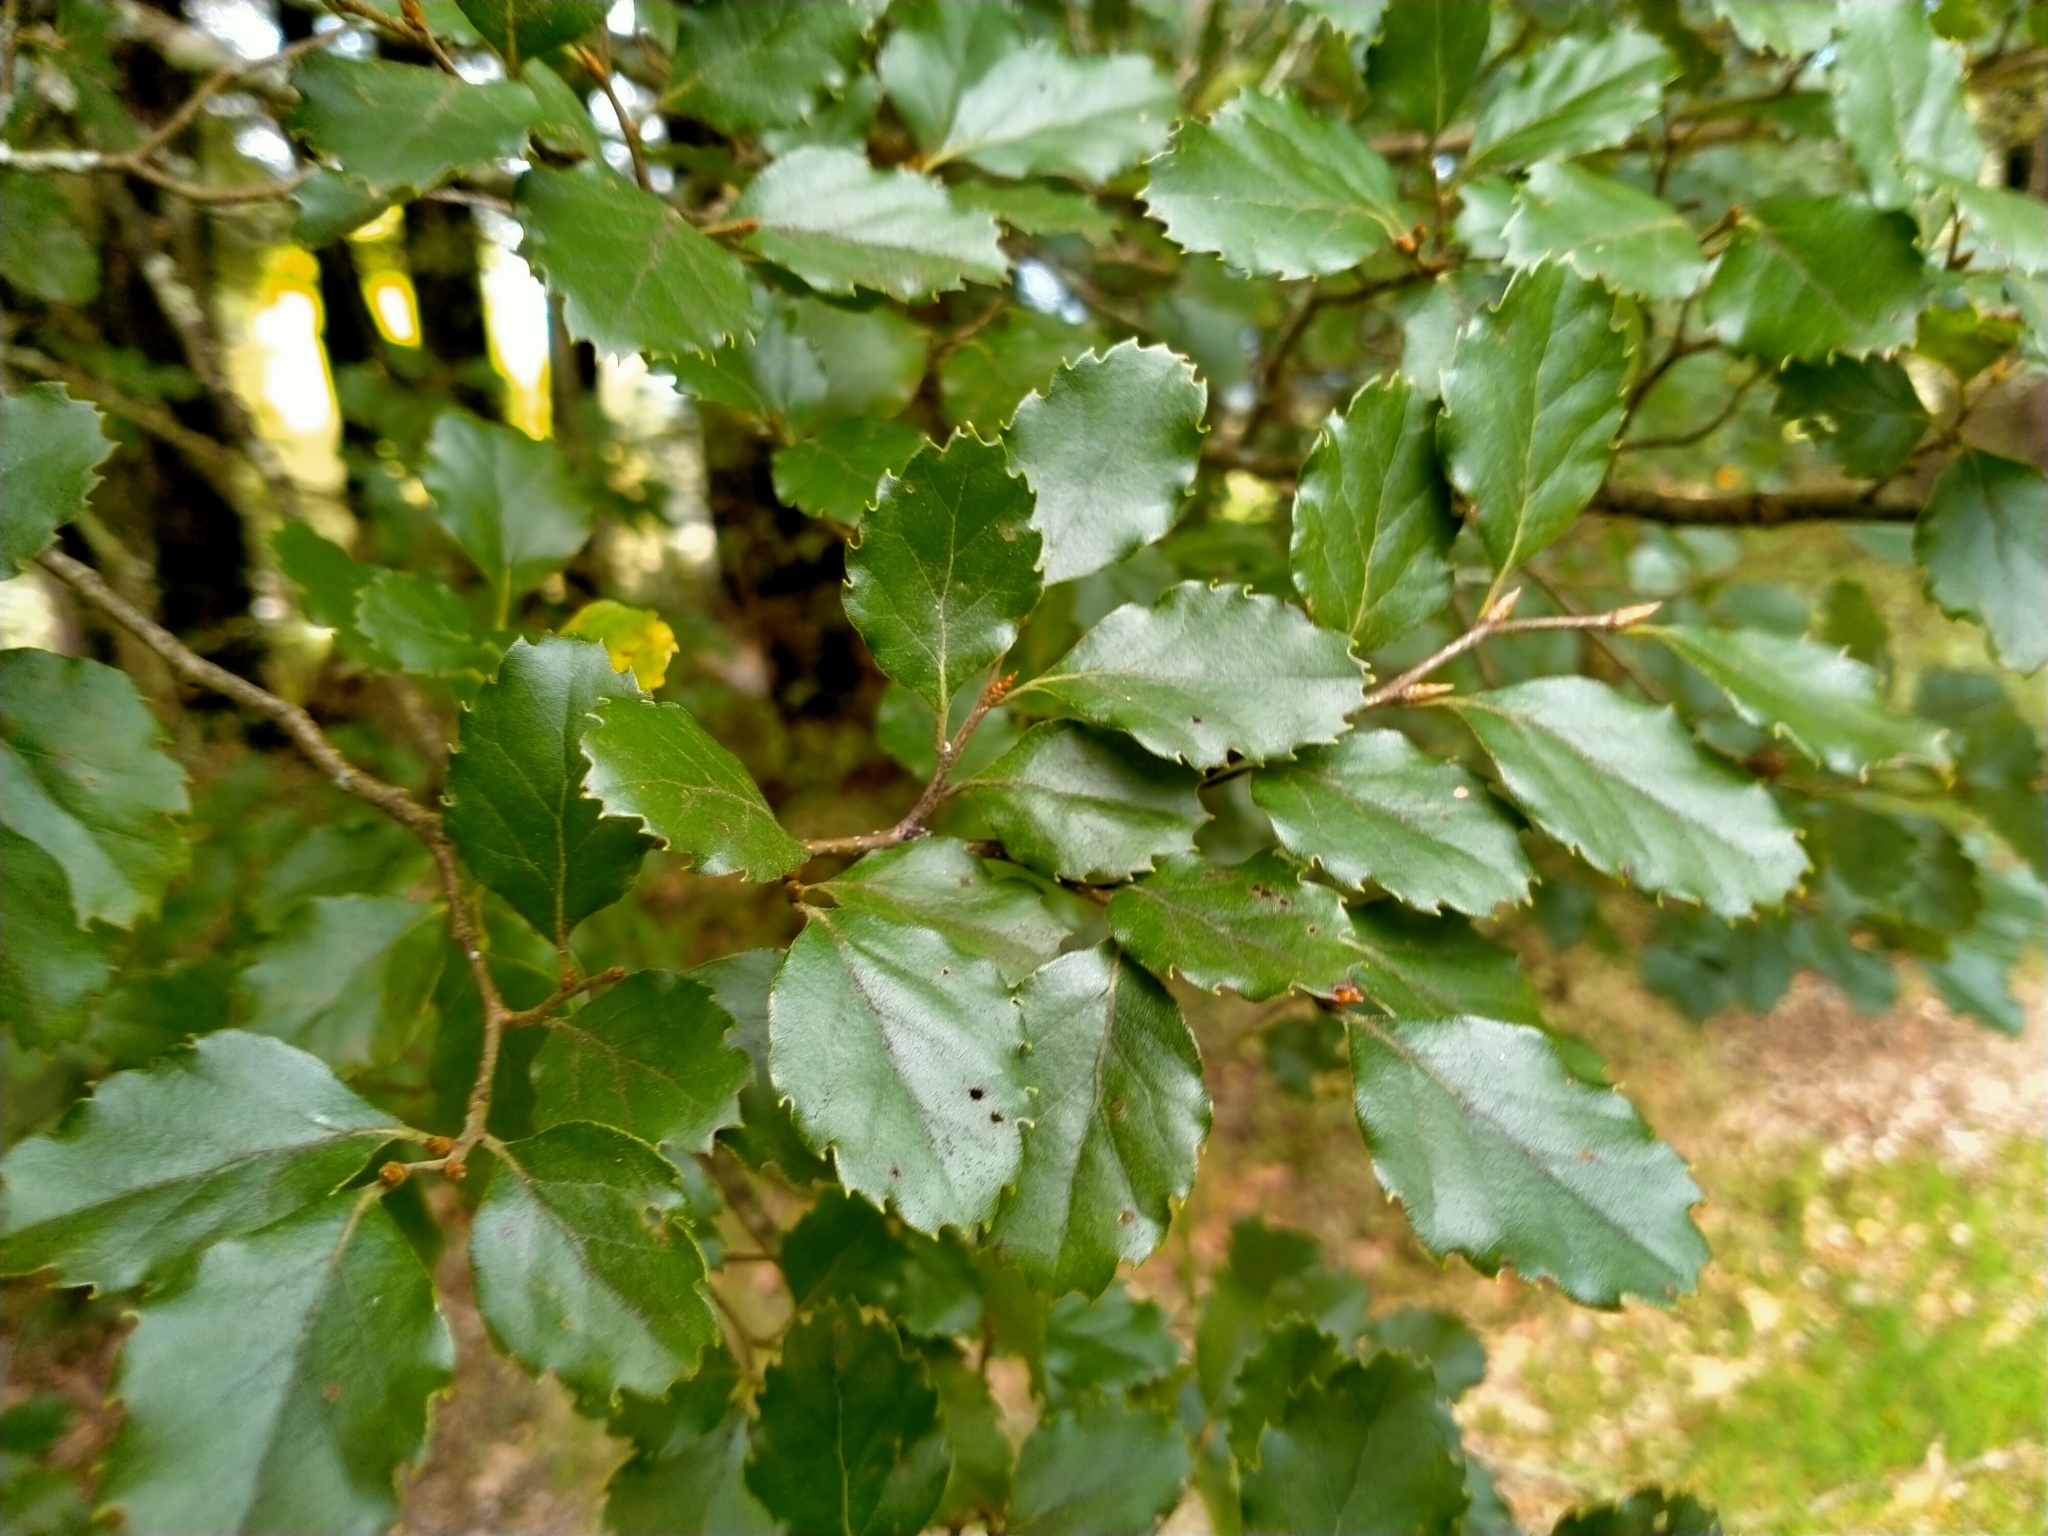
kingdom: Plantae
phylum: Tracheophyta
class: Magnoliopsida
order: Fagales
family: Nothofagaceae
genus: Nothofagus
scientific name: Nothofagus fusca
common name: Red beech
